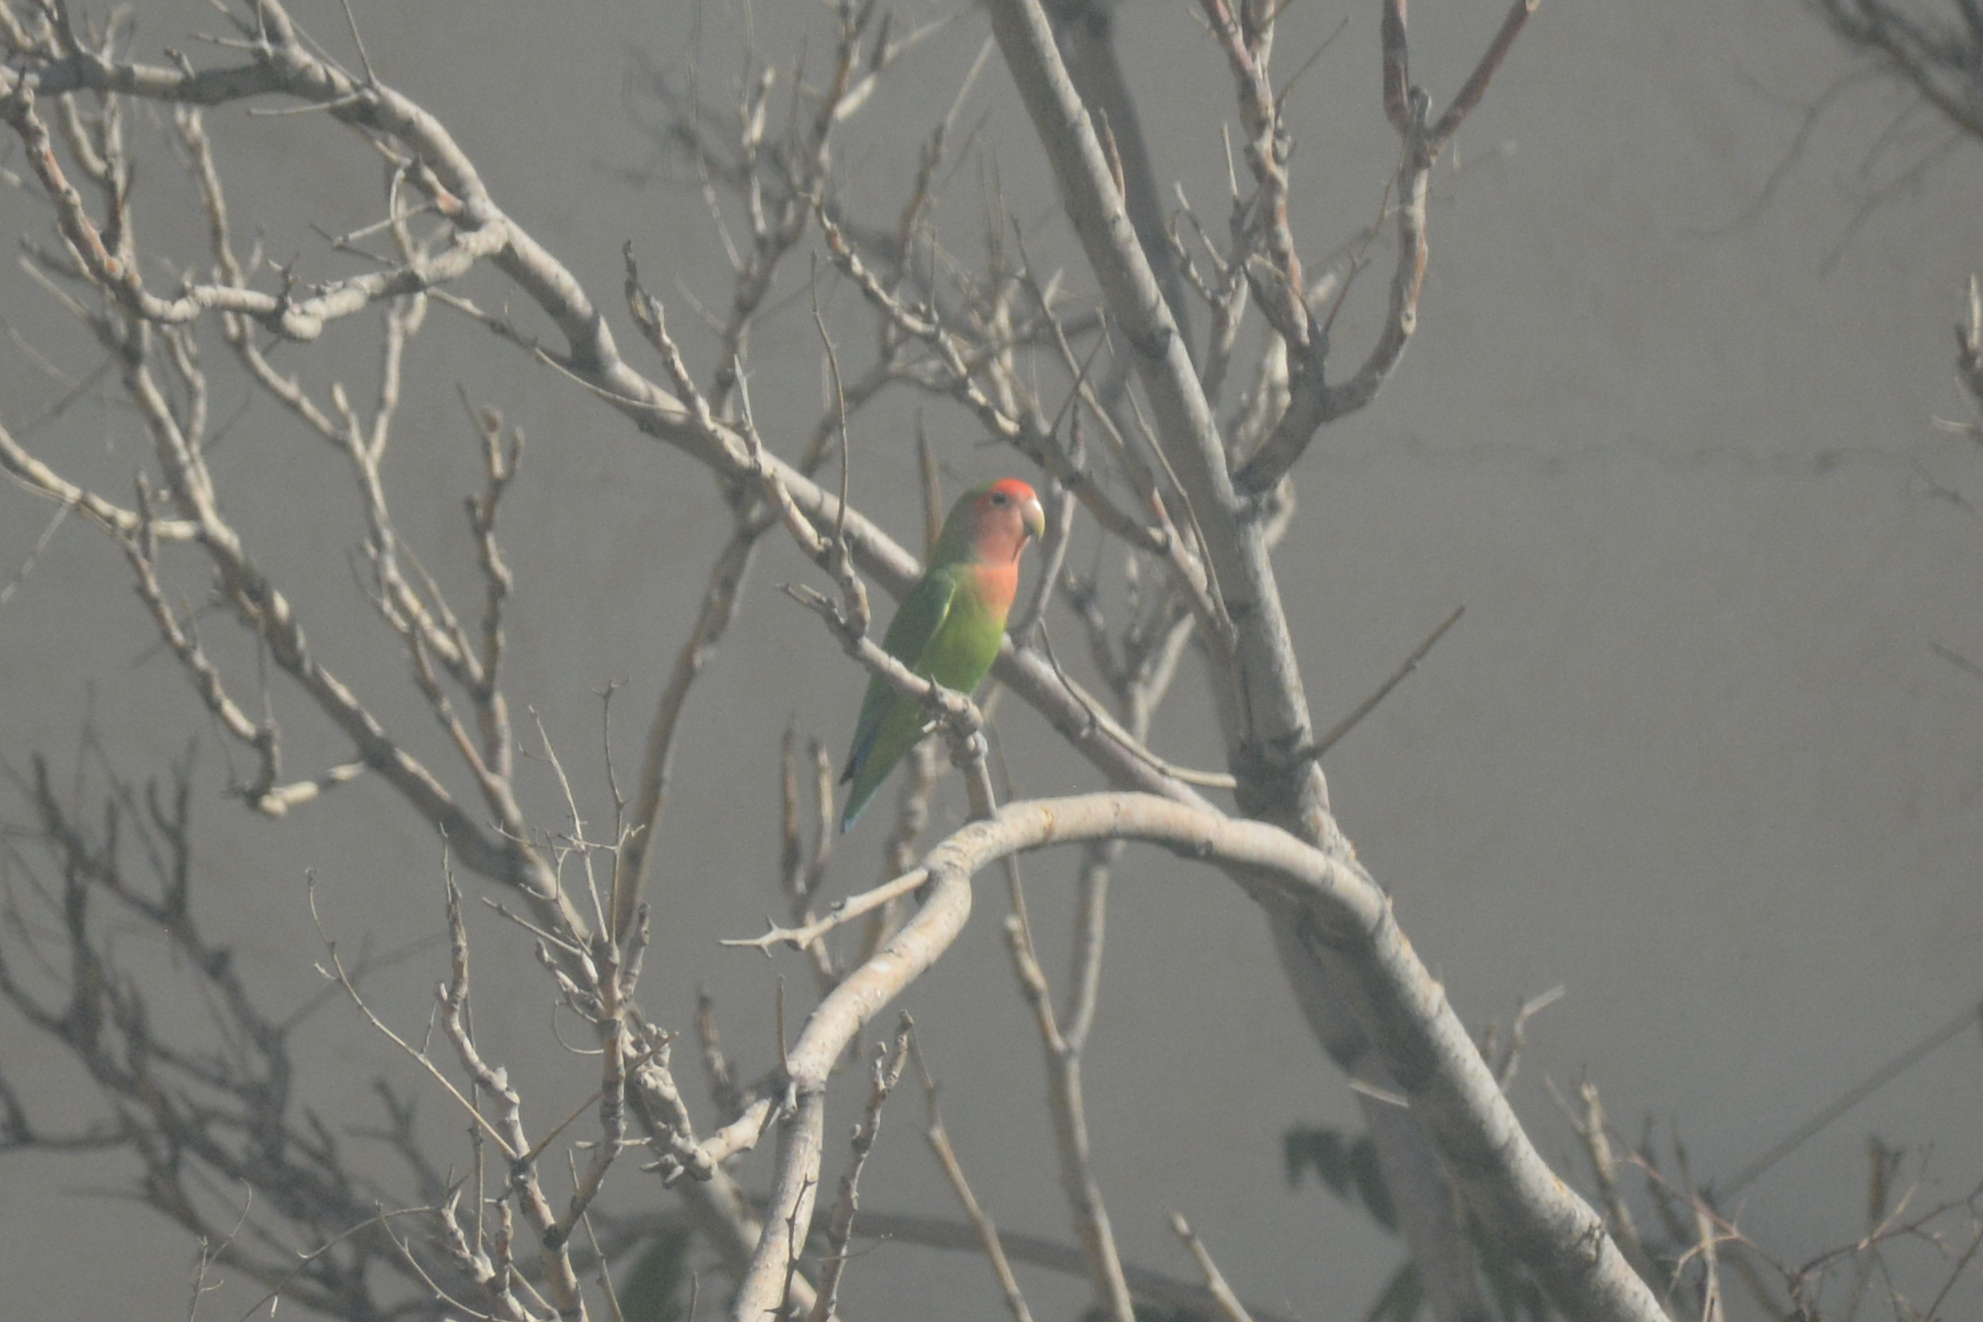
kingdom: Animalia
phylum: Chordata
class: Aves
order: Psittaciformes
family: Psittacidae
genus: Agapornis
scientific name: Agapornis roseicollis
